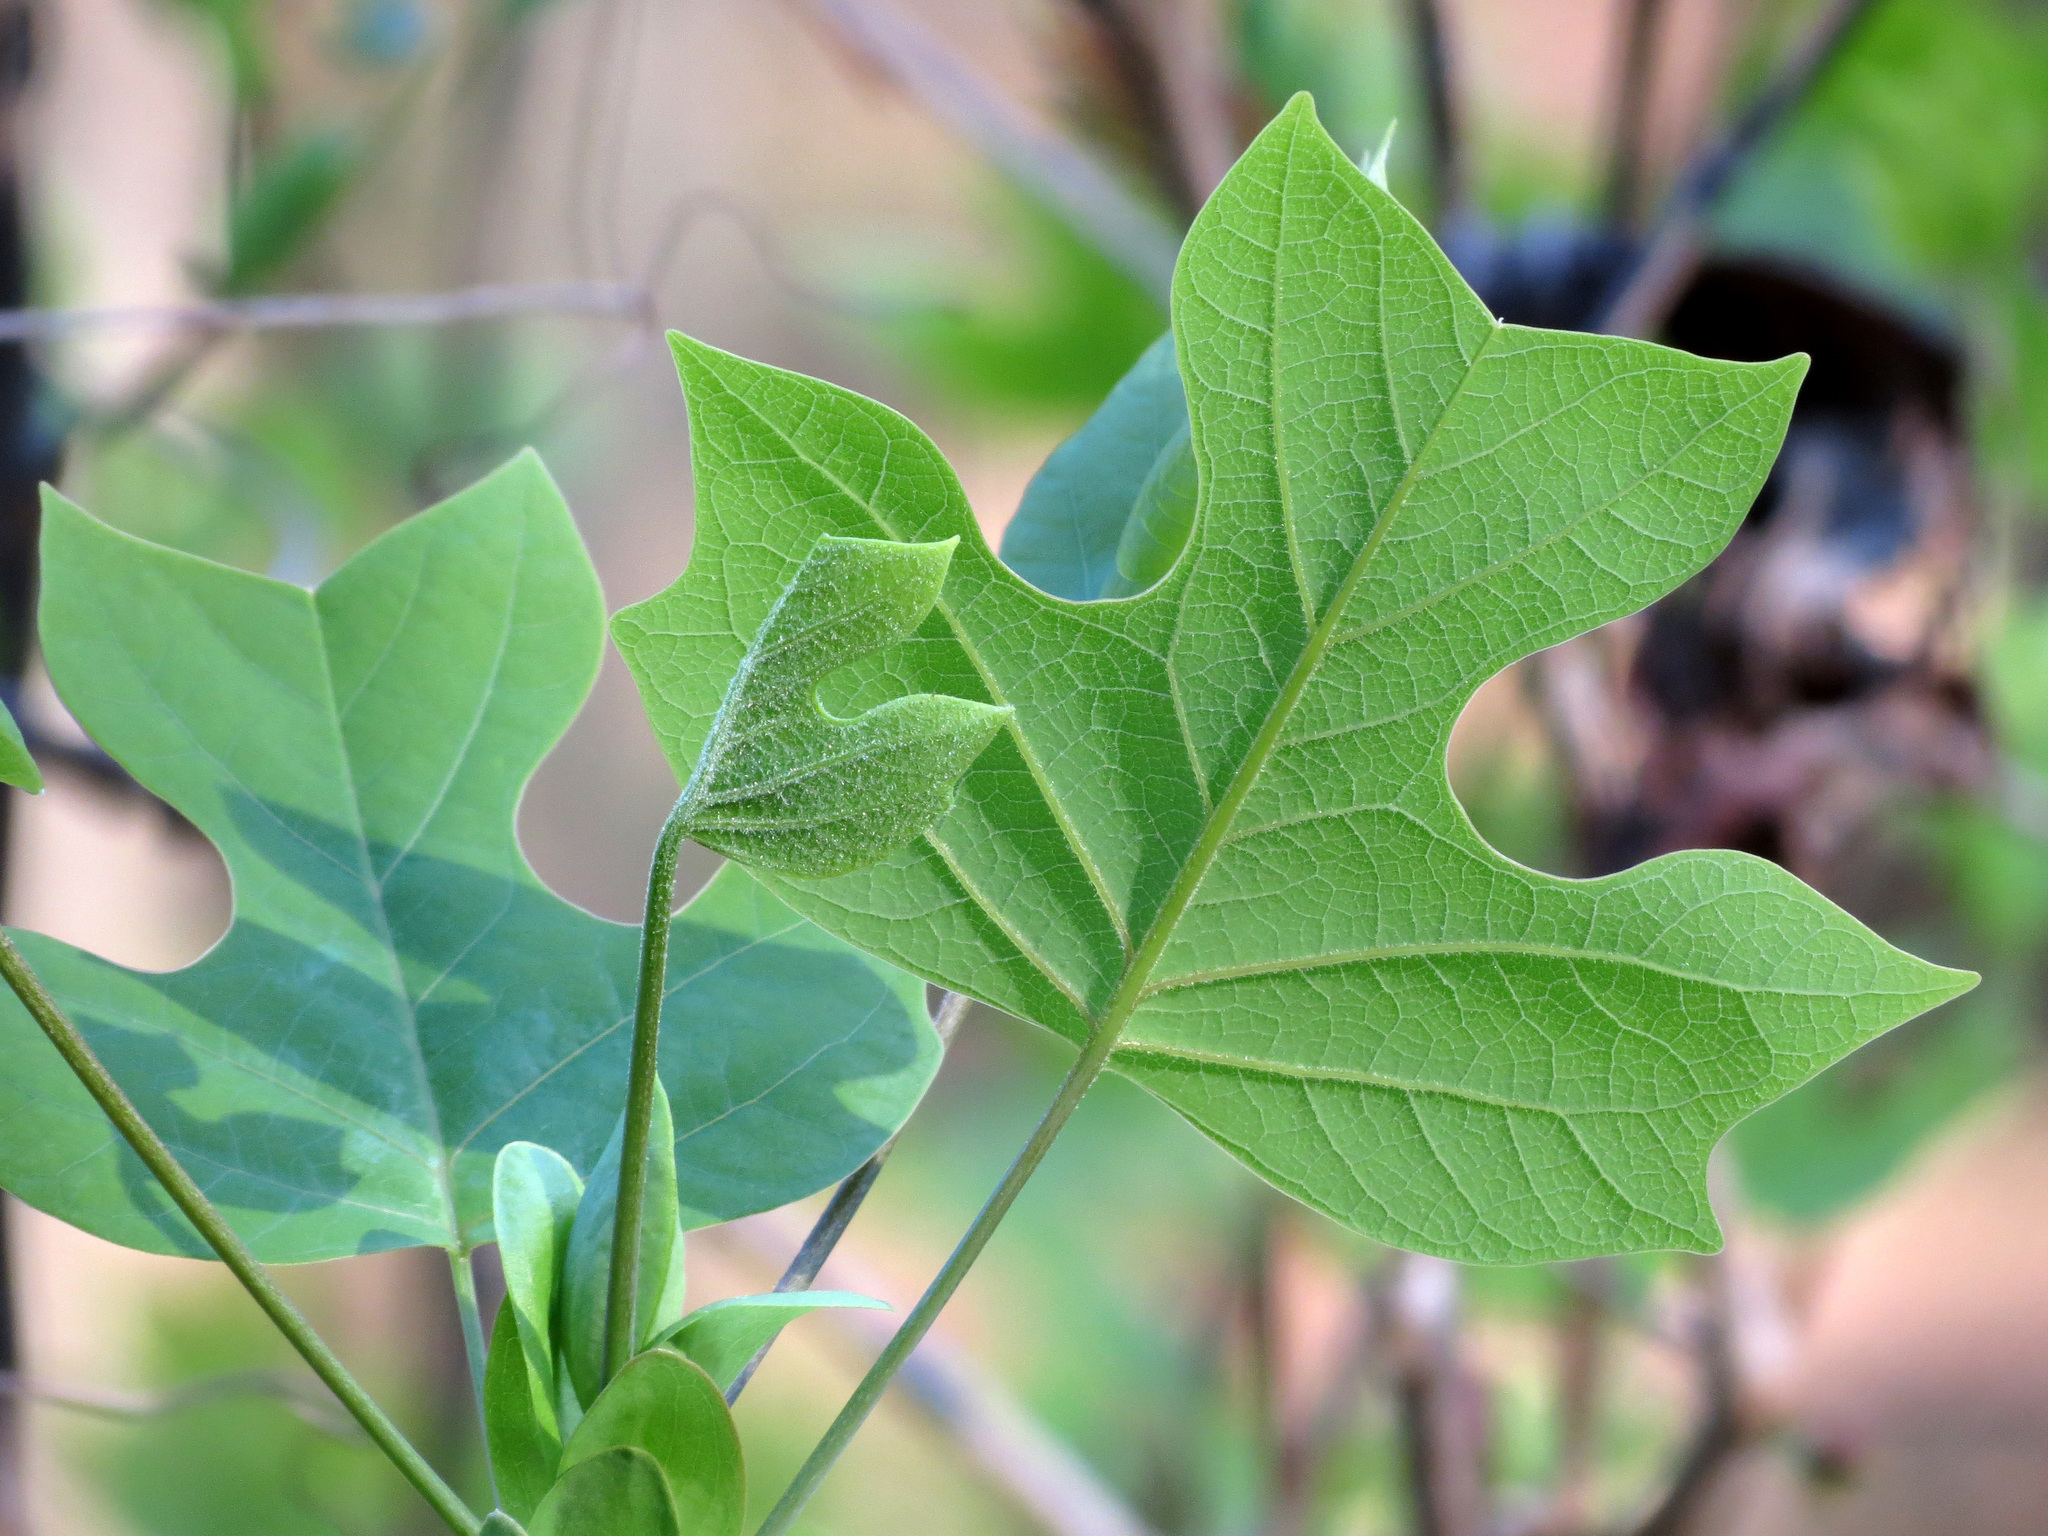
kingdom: Plantae
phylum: Tracheophyta
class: Magnoliopsida
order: Magnoliales
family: Magnoliaceae
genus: Liriodendron
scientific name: Liriodendron tulipifera
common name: Tulip tree
